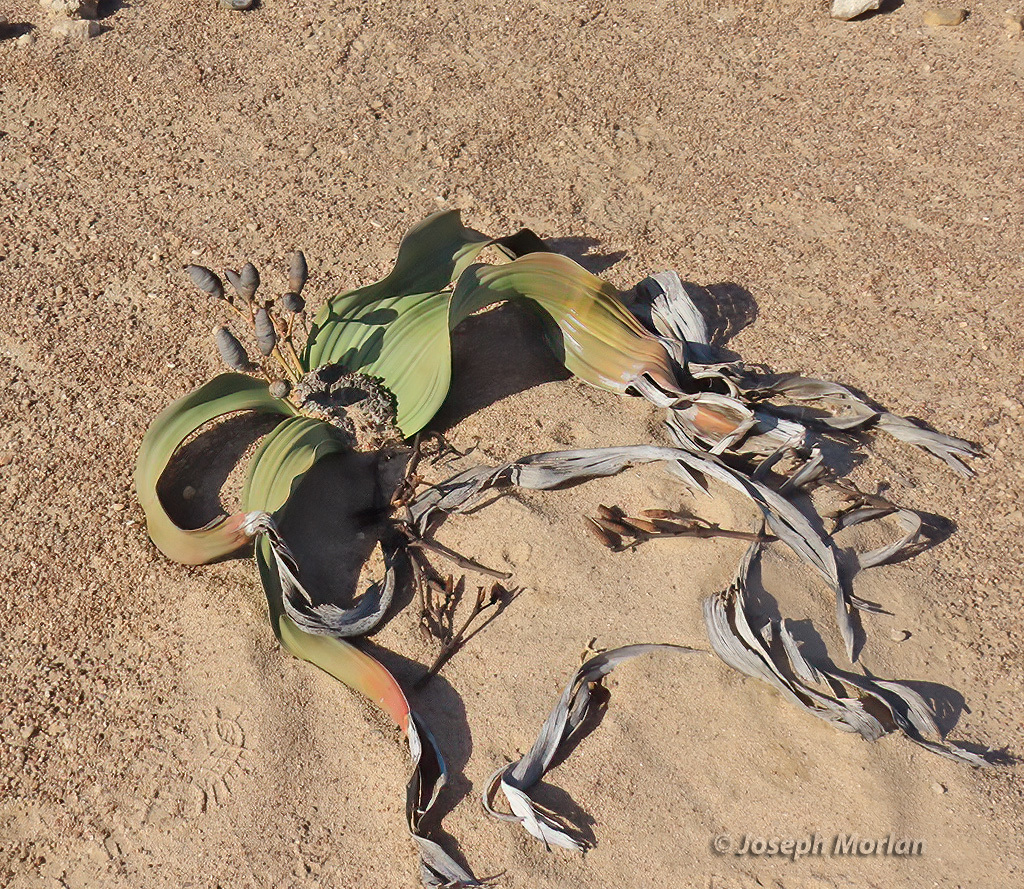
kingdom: Plantae
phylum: Tracheophyta
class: Gnetopsida
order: Welwitschiales
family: Welwitschiaceae
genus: Welwitschia
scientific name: Welwitschia mirabilis
